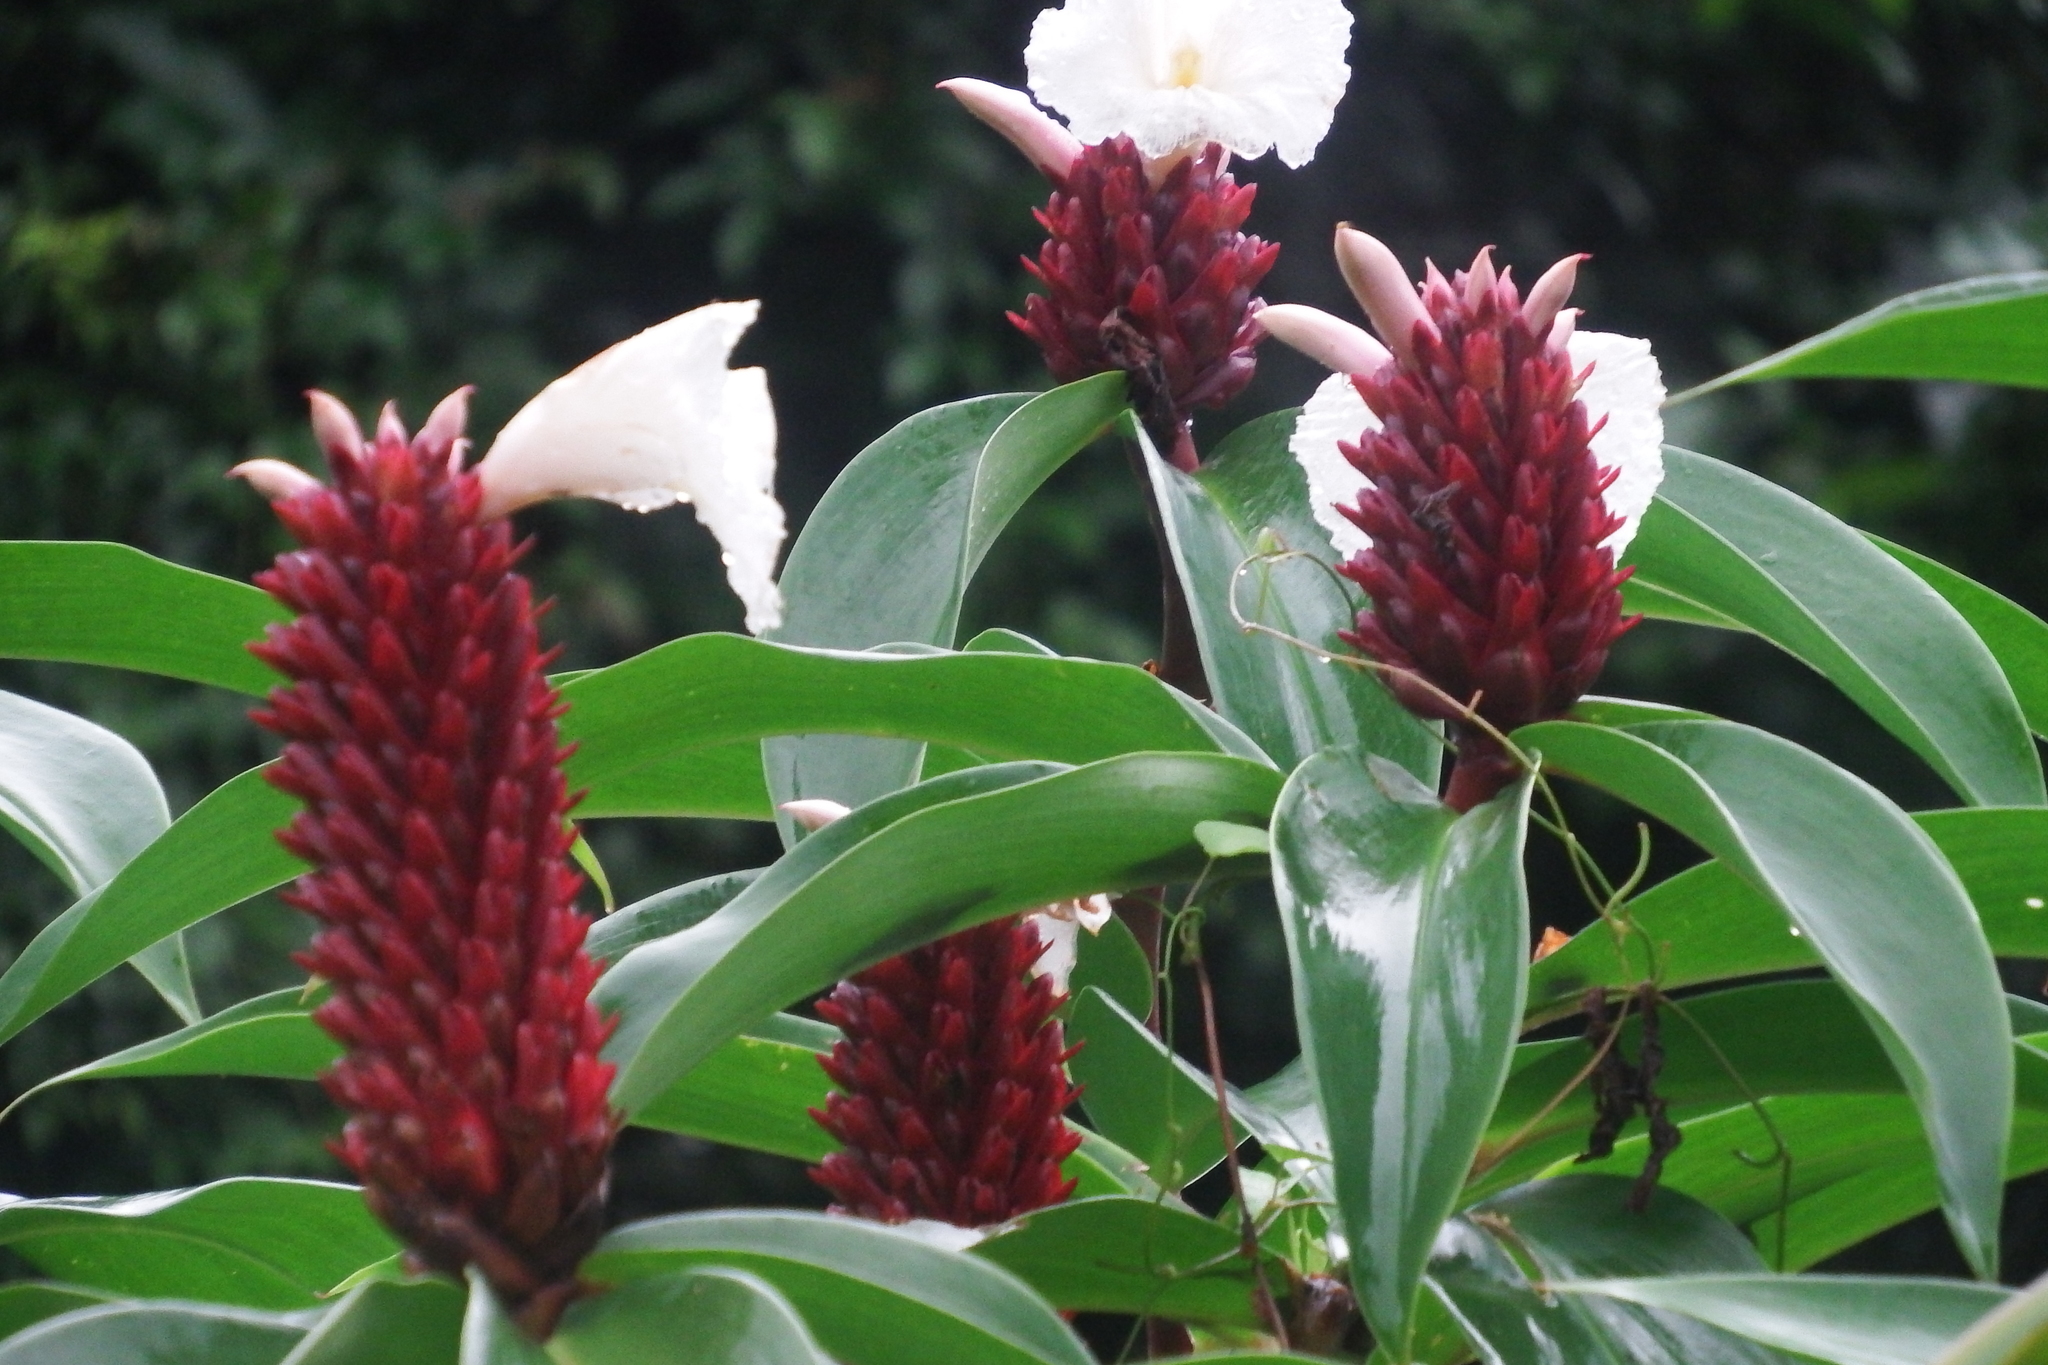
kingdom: Plantae
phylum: Tracheophyta
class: Liliopsida
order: Zingiberales
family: Costaceae
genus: Hellenia
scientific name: Hellenia speciosa
